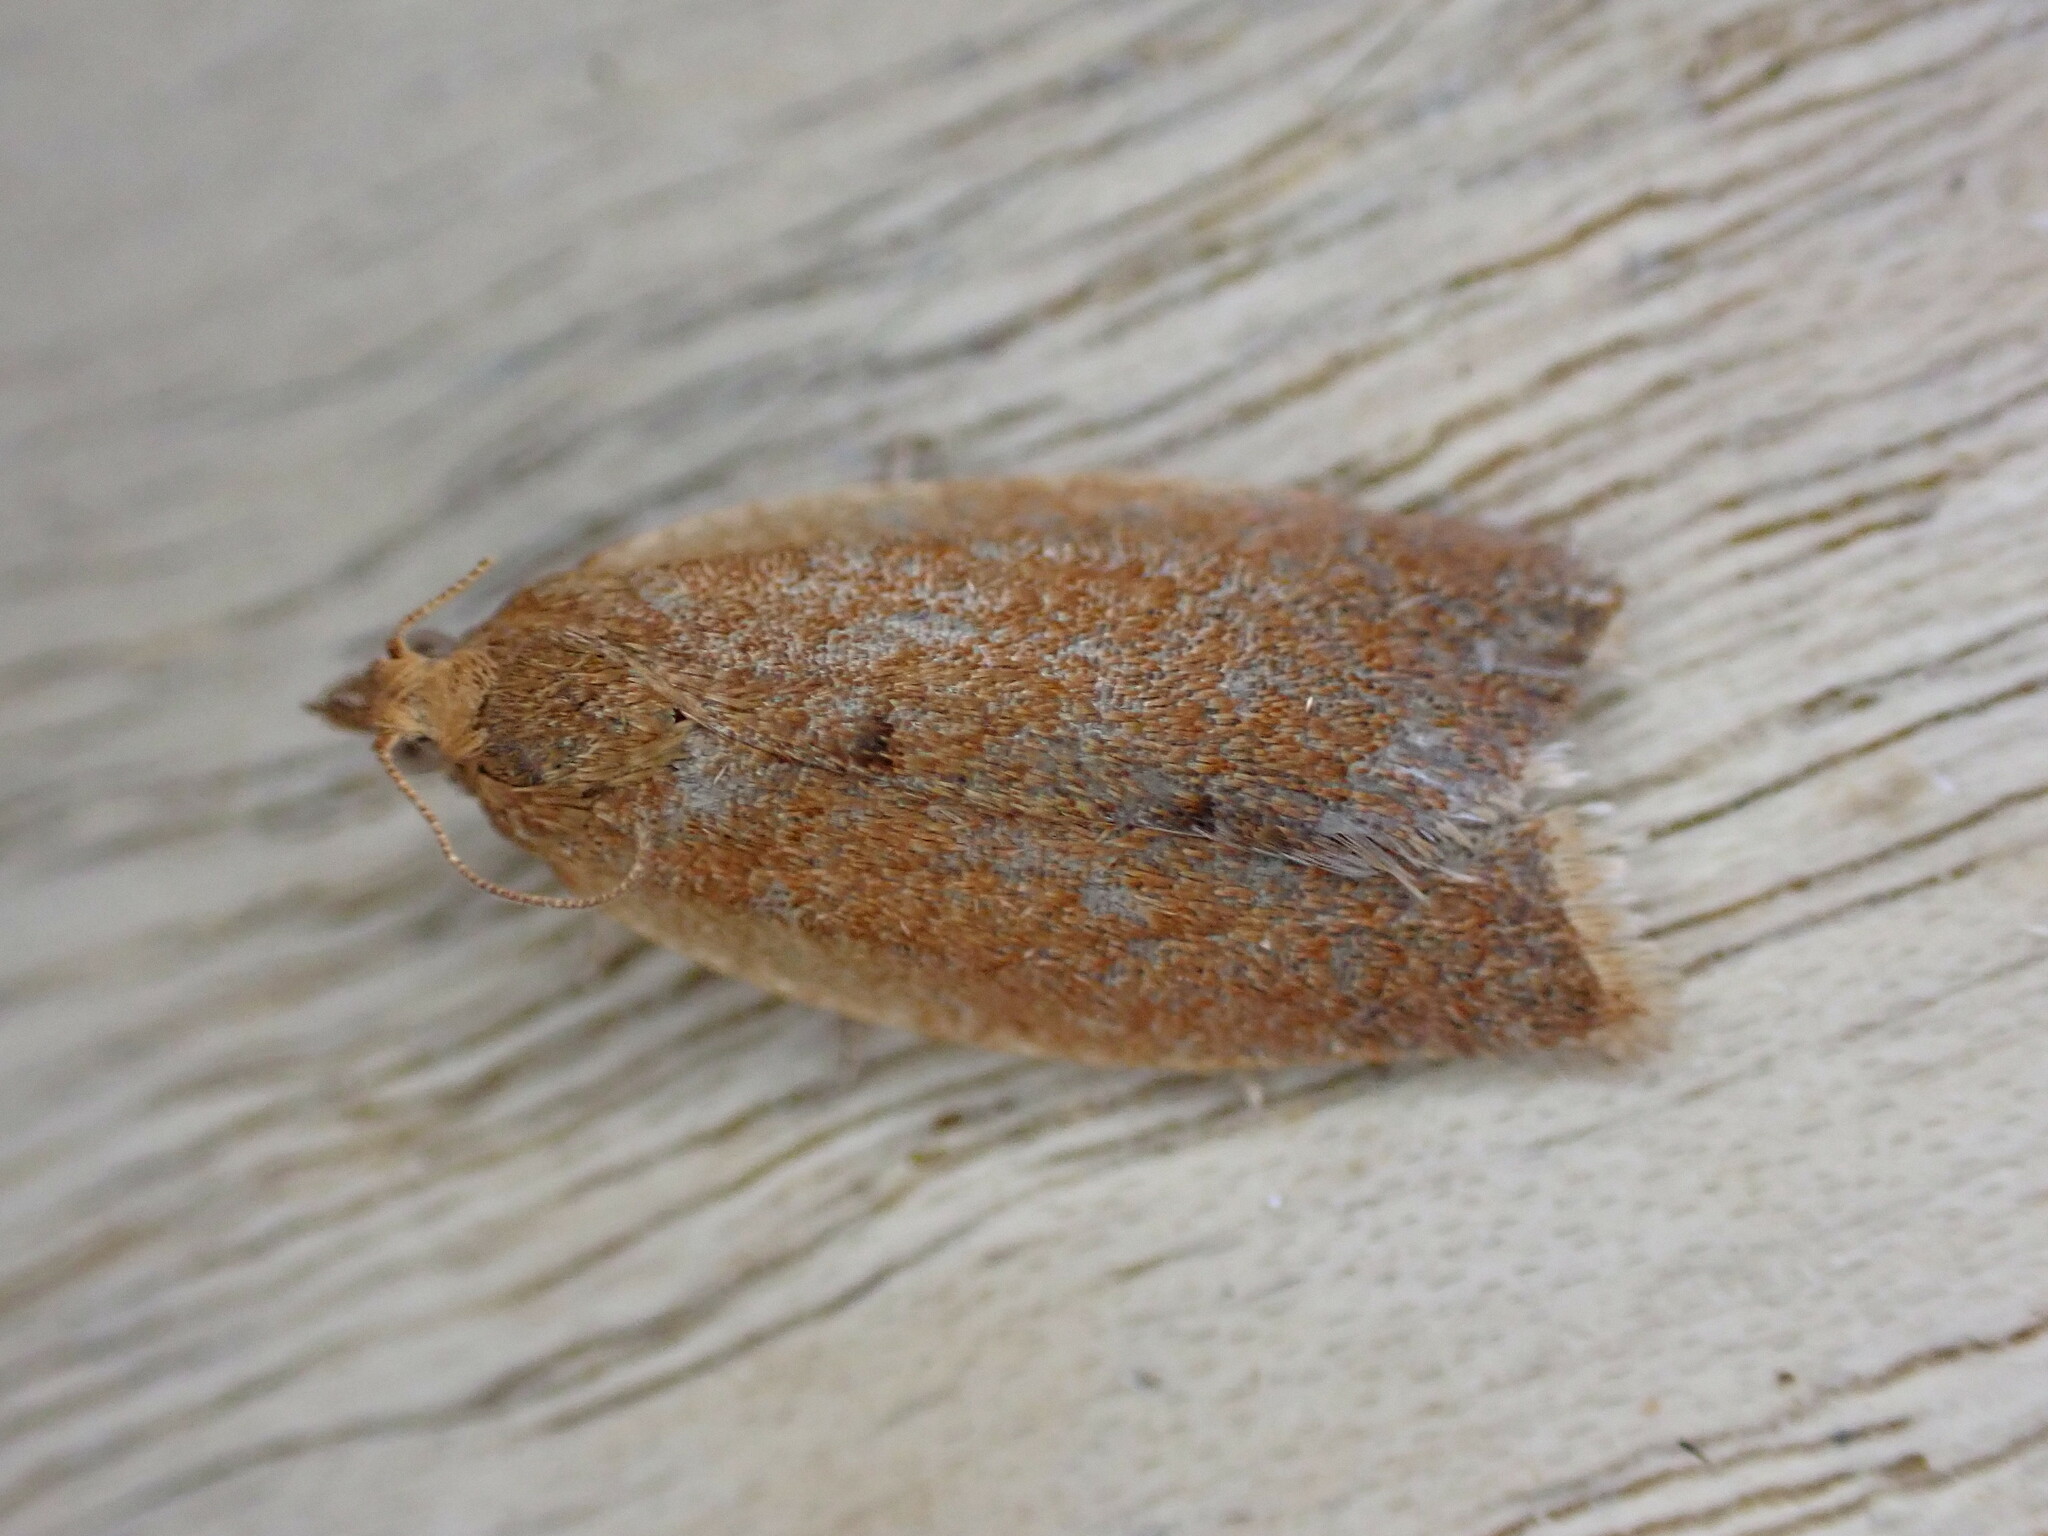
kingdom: Animalia
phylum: Arthropoda
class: Insecta
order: Lepidoptera
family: Tortricidae
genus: Clepsis
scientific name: Clepsis consimilana
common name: Privet tortrix
